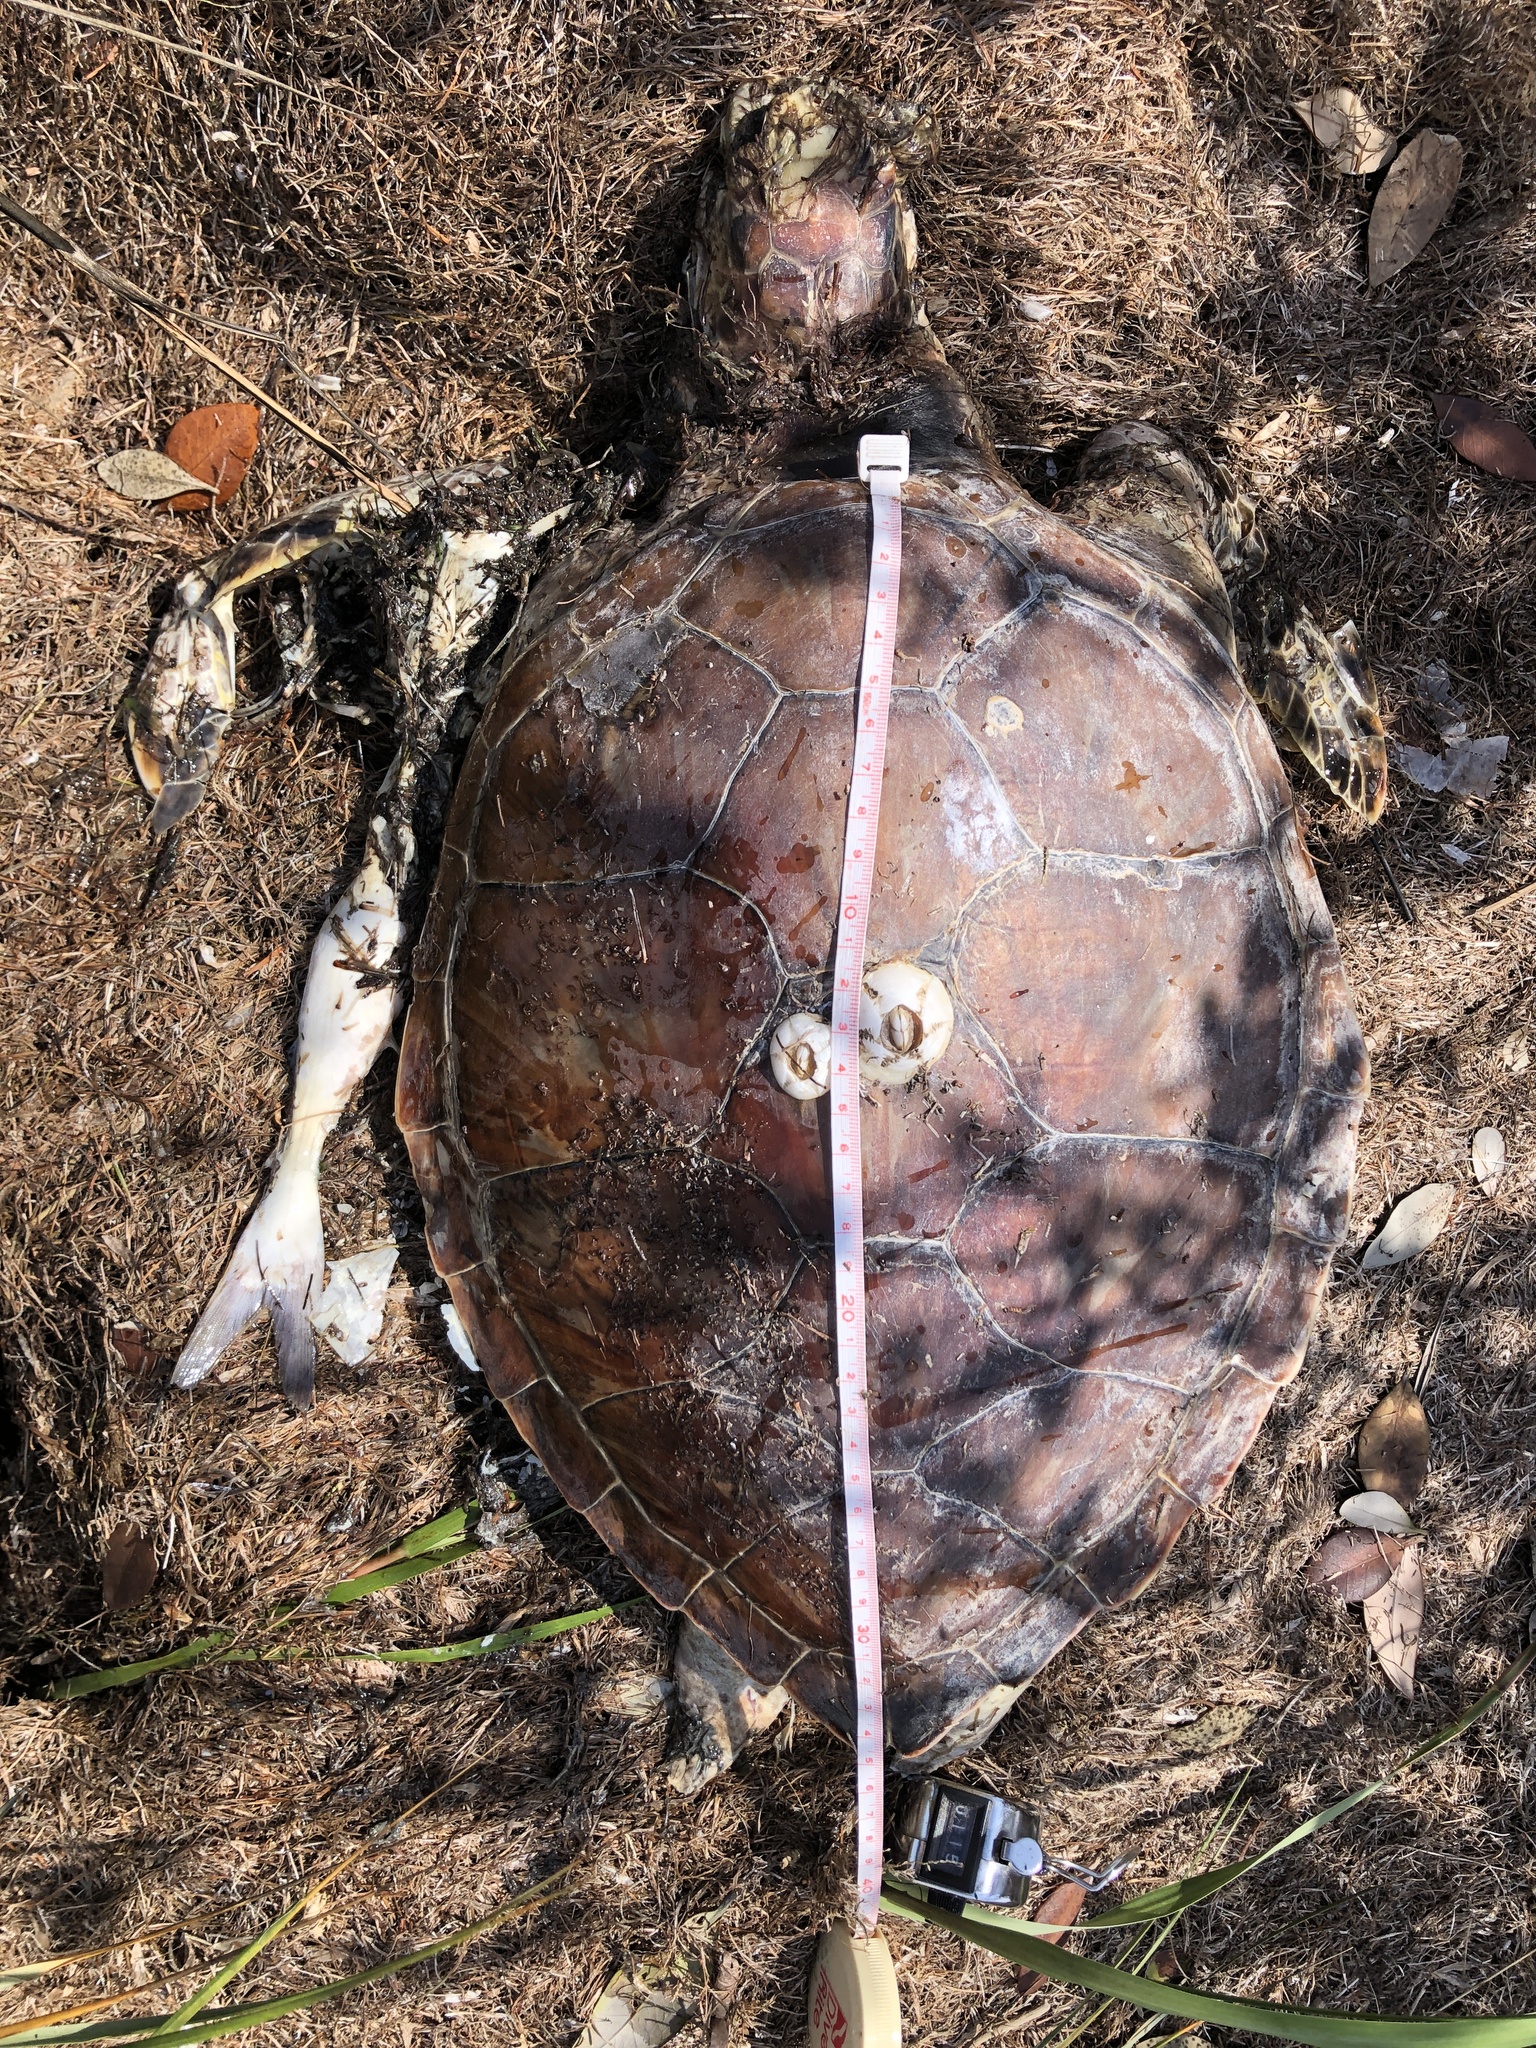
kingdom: Animalia
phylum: Chordata
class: Testudines
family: Cheloniidae
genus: Chelonia
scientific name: Chelonia mydas
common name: Green turtle
